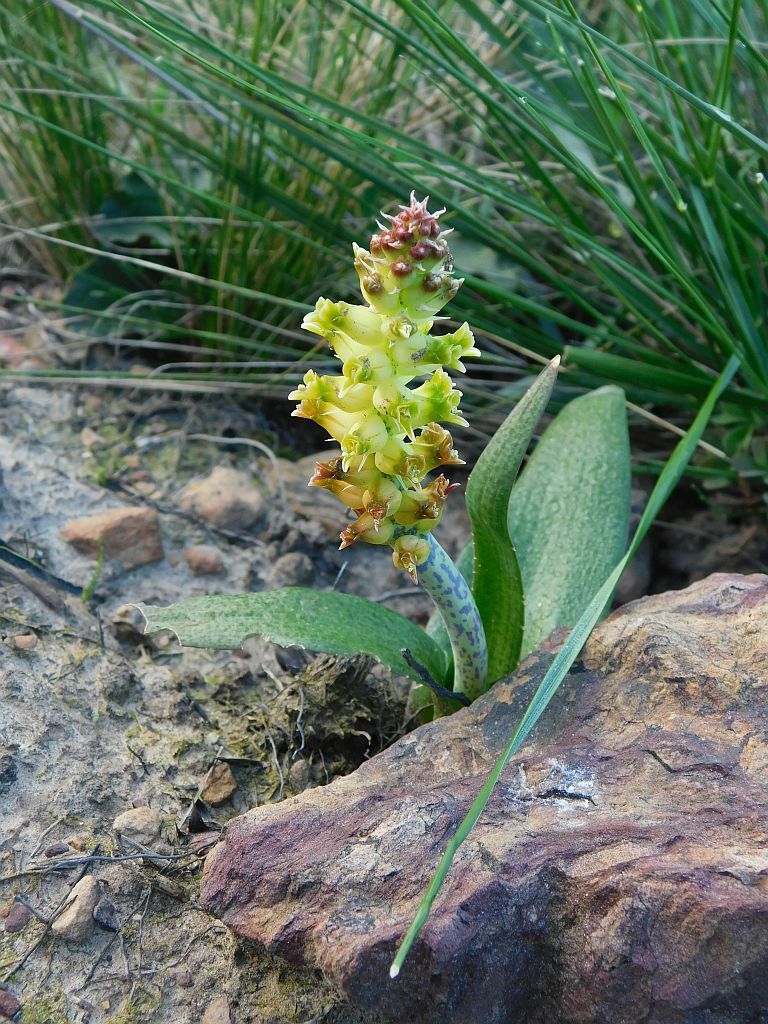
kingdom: Plantae
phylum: Tracheophyta
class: Liliopsida
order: Asparagales
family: Asparagaceae
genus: Lachenalia
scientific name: Lachenalia lutea
